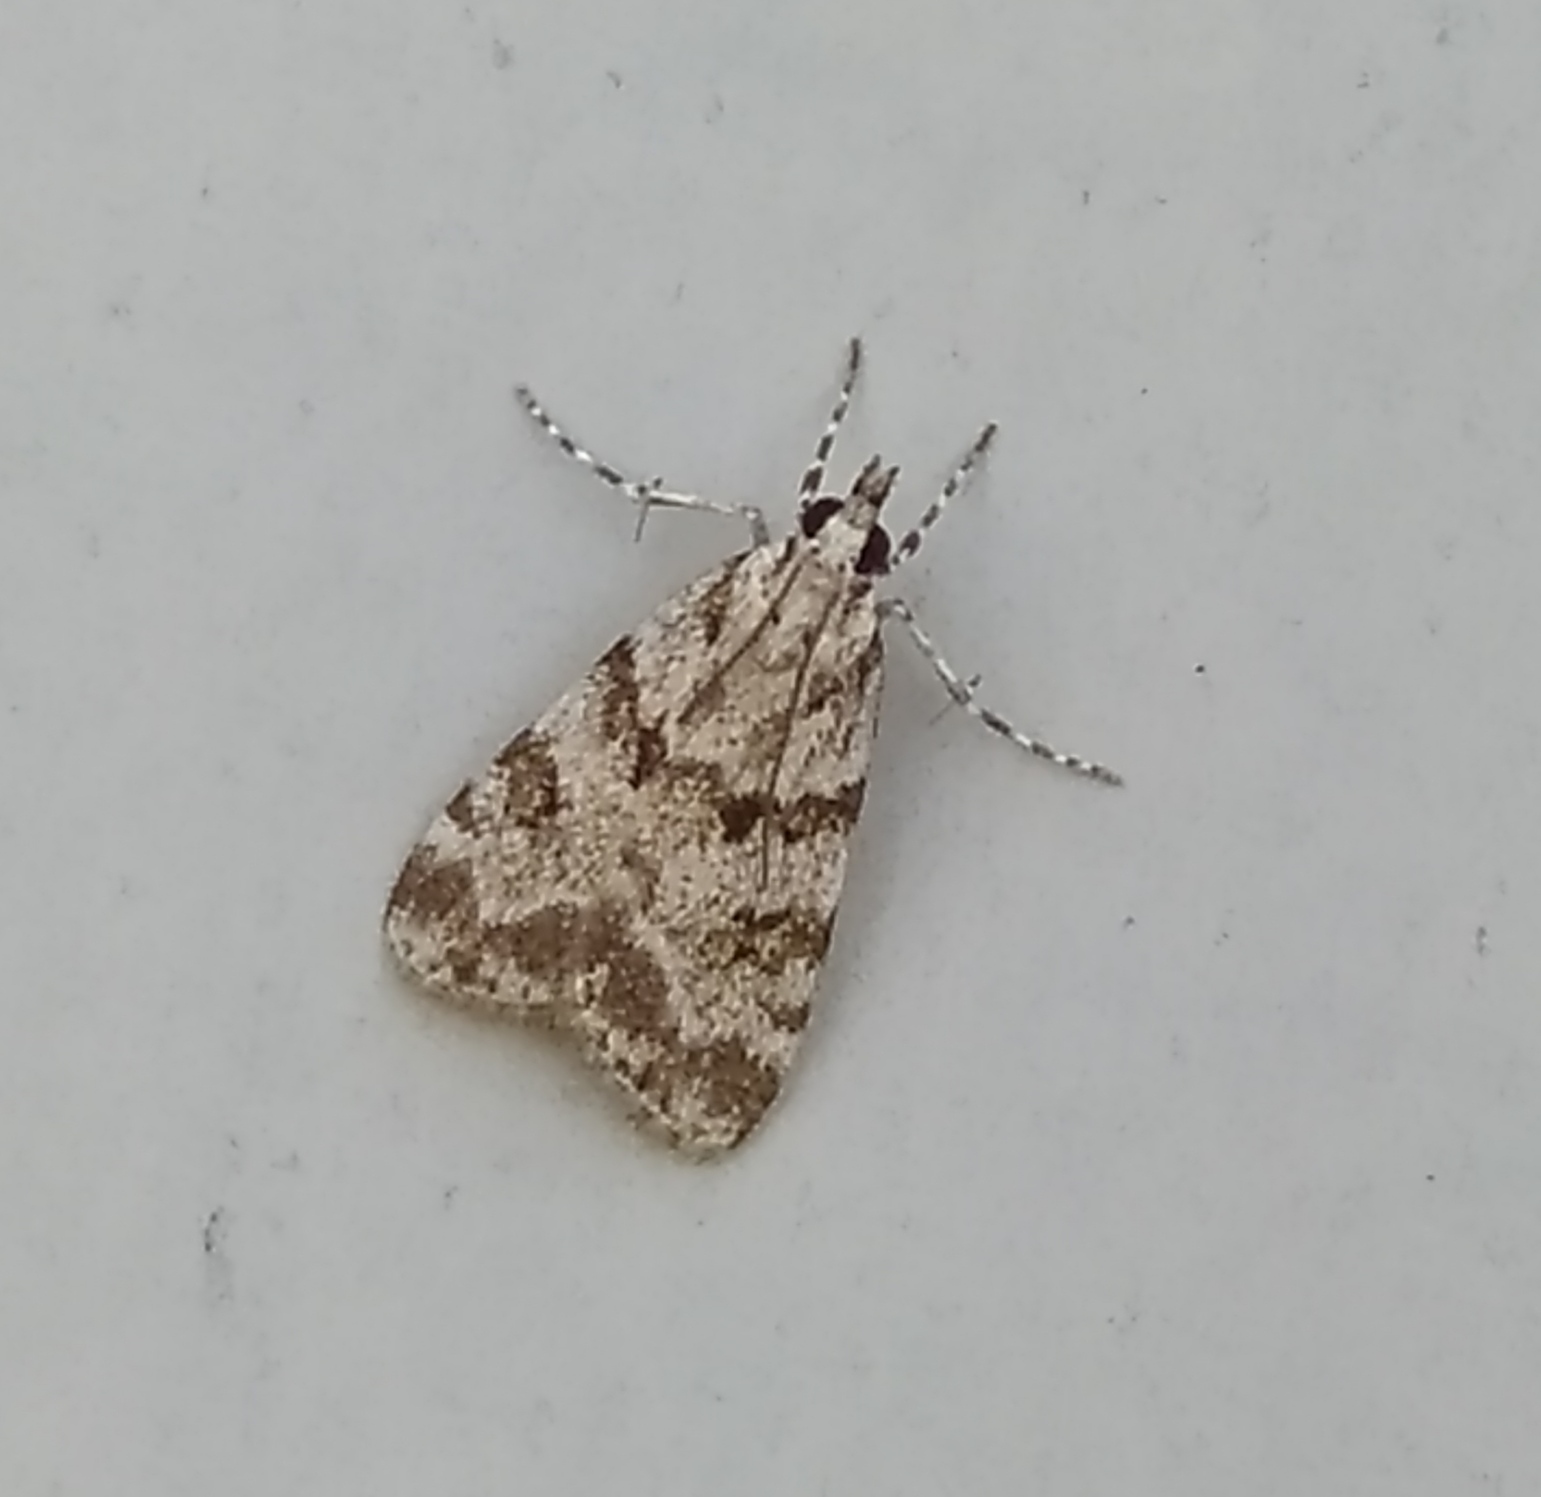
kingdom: Animalia
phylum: Arthropoda
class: Insecta
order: Lepidoptera
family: Crambidae
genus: Scoparia
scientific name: Scoparia pyralella
